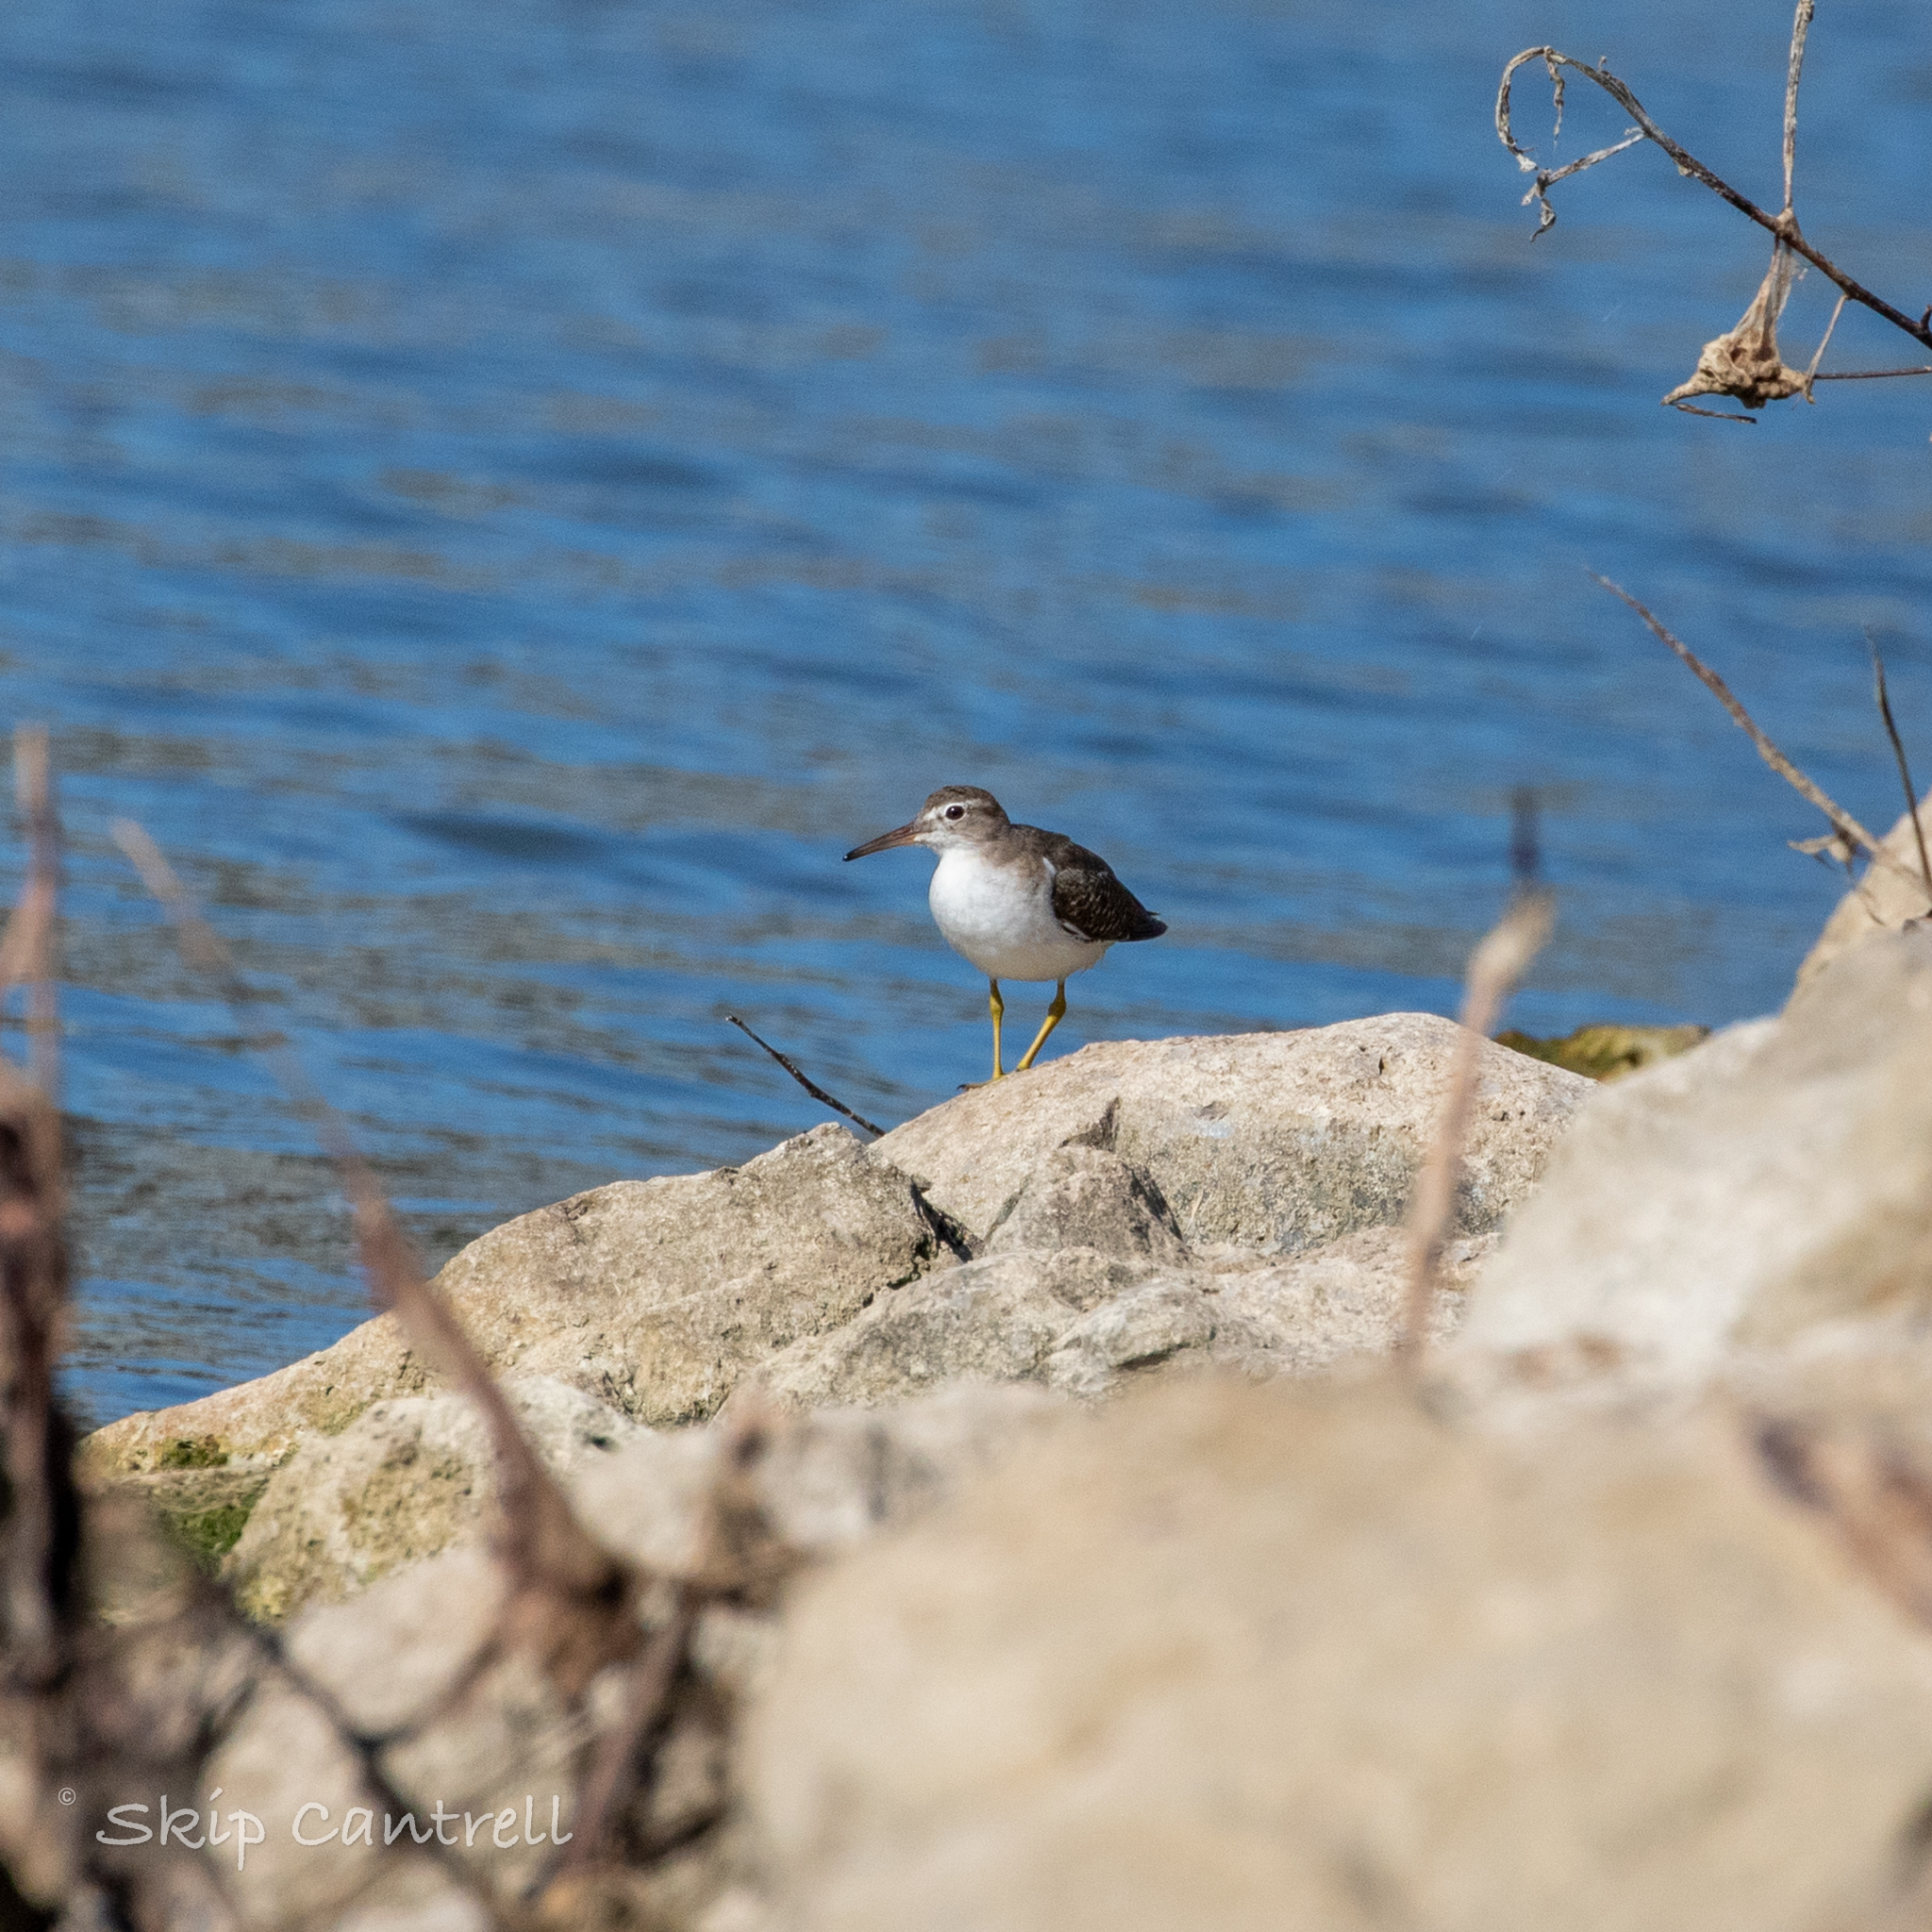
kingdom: Animalia
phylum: Chordata
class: Aves
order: Charadriiformes
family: Scolopacidae
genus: Actitis
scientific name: Actitis macularius
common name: Spotted sandpiper
